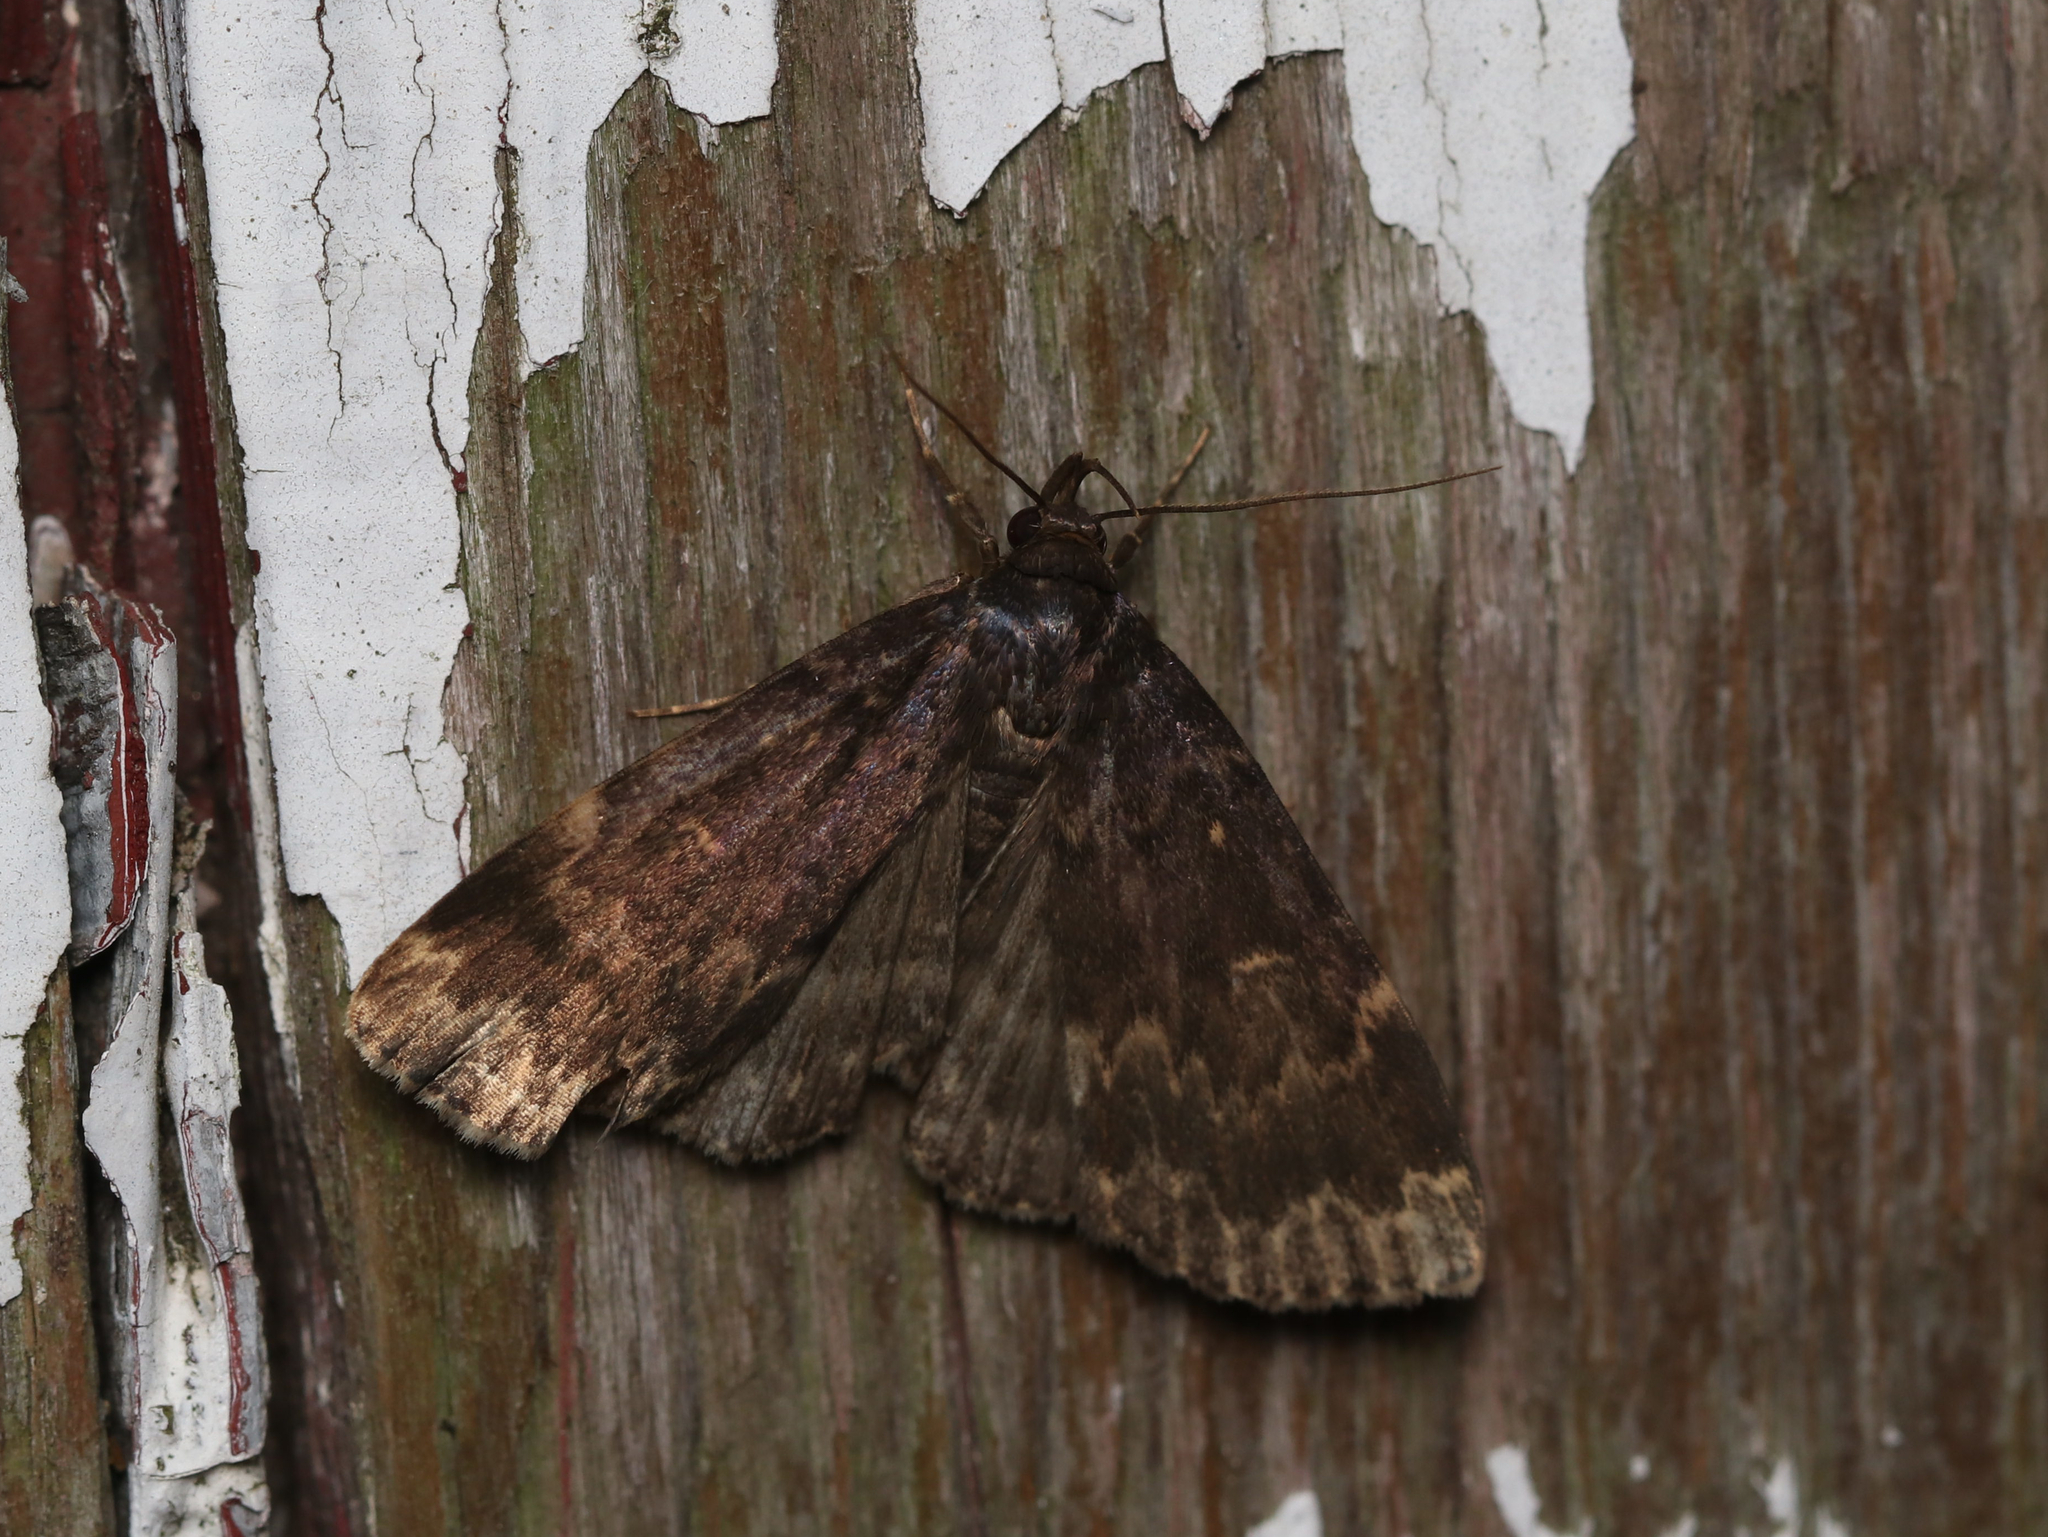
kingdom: Animalia
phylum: Arthropoda
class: Insecta
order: Lepidoptera
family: Erebidae
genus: Idia
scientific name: Idia lubricalis
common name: Twin-striped tabby
